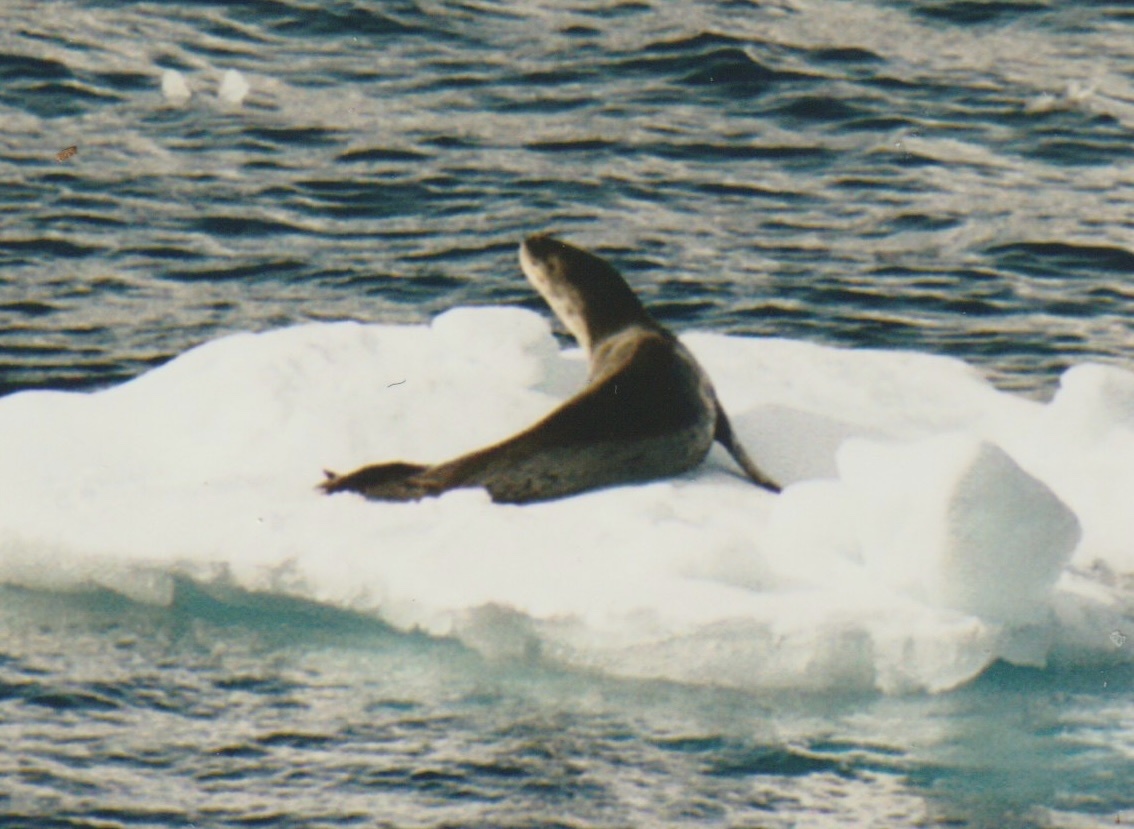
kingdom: Animalia
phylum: Chordata
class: Mammalia
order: Carnivora
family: Phocidae
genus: Hydrurga
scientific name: Hydrurga leptonyx
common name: Leopard seal
